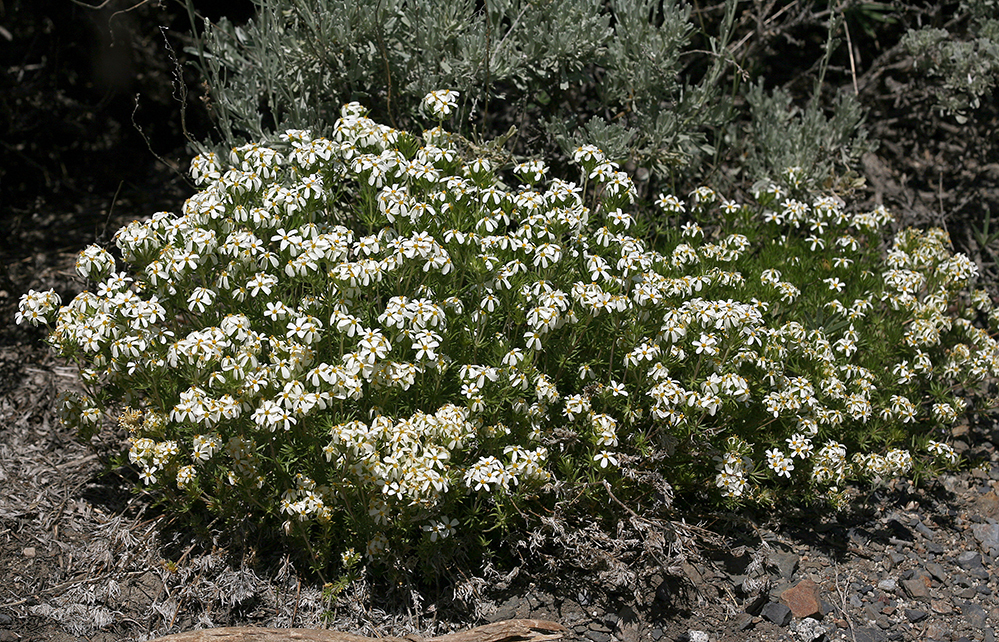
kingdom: Plantae
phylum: Tracheophyta
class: Magnoliopsida
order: Ericales
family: Polemoniaceae
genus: Leptosiphon
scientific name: Leptosiphon pachyphyllus
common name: Sierra linanthus
